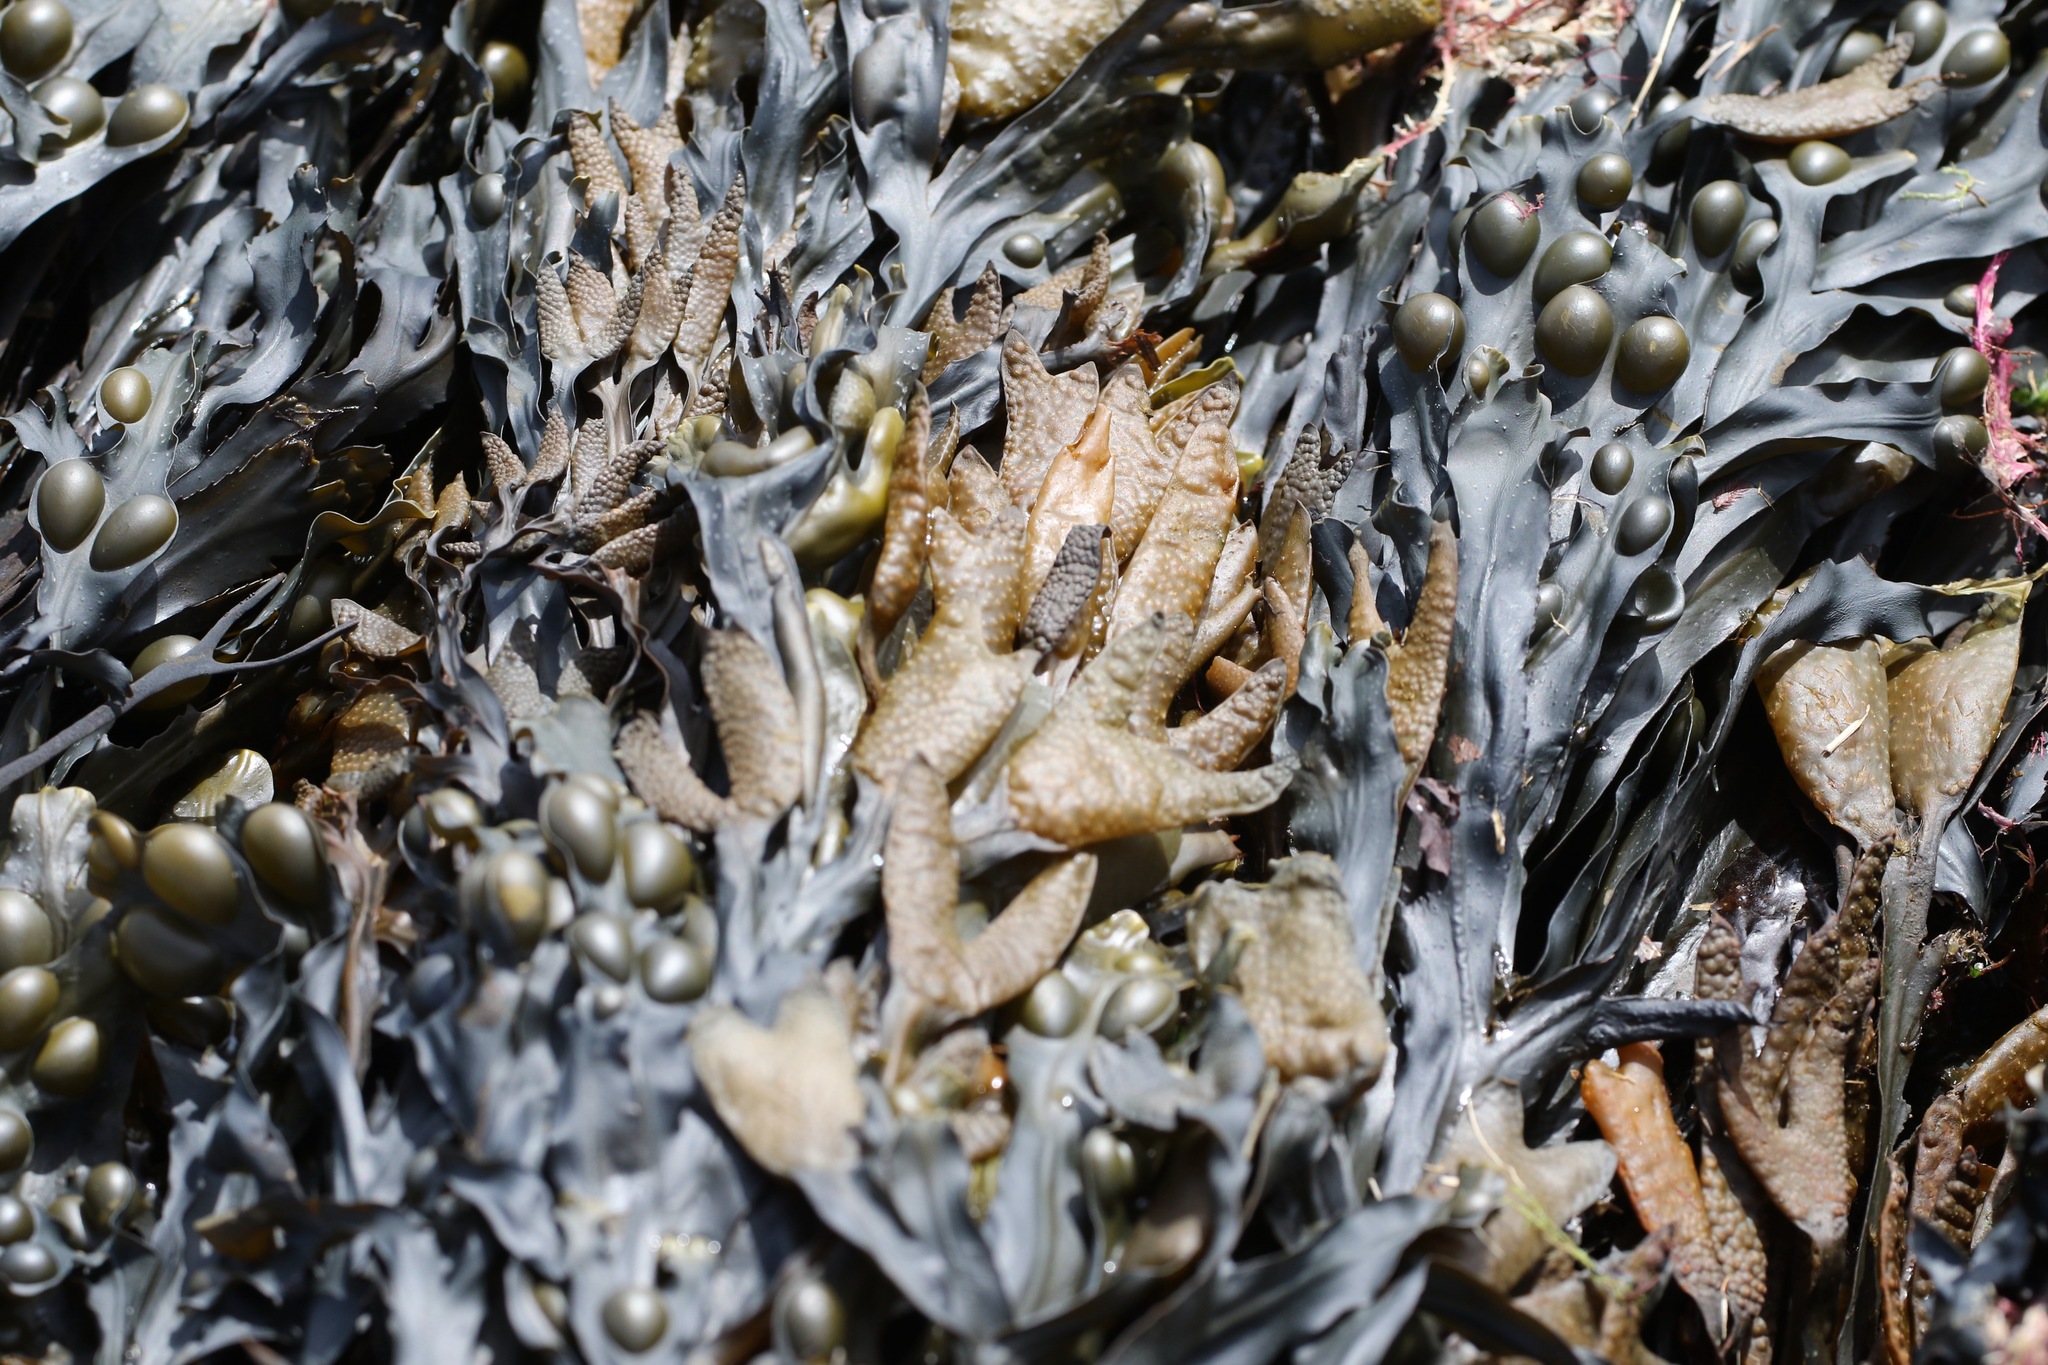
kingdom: Chromista
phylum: Ochrophyta
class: Phaeophyceae
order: Fucales
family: Fucaceae
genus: Fucus
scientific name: Fucus vesiculosus
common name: Bladder wrack
